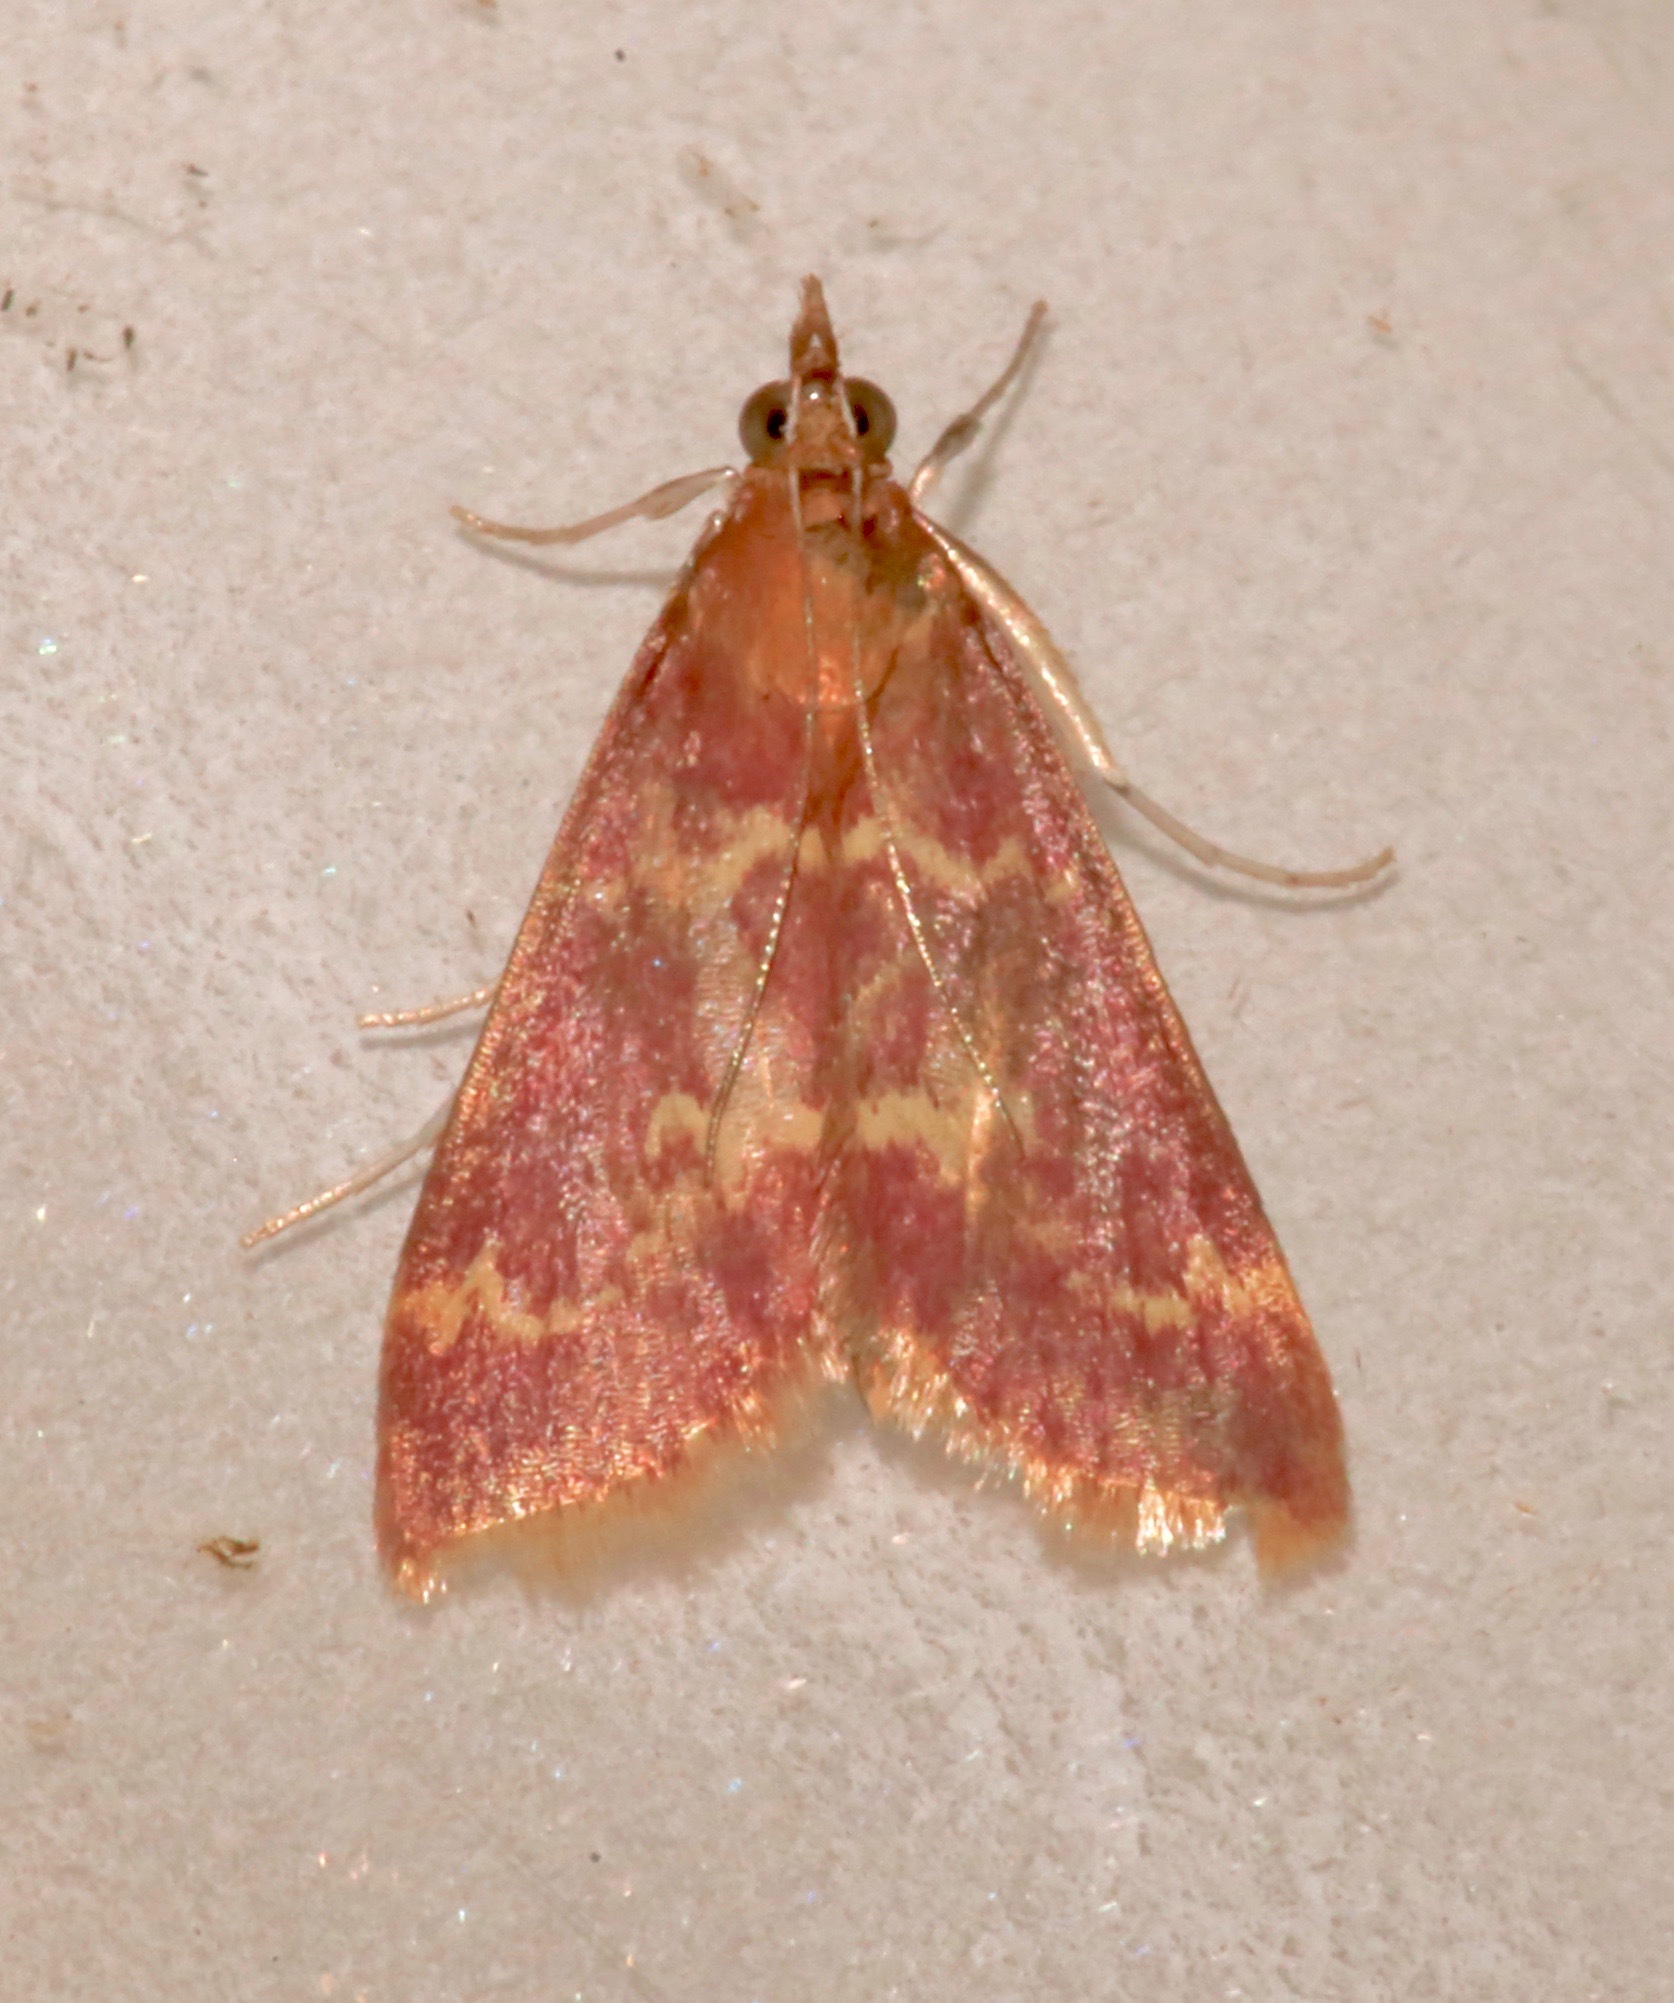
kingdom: Animalia
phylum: Arthropoda
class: Insecta
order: Lepidoptera
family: Crambidae
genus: Pyrausta
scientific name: Pyrausta signatalis
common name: Raspberry pyrausta moth
